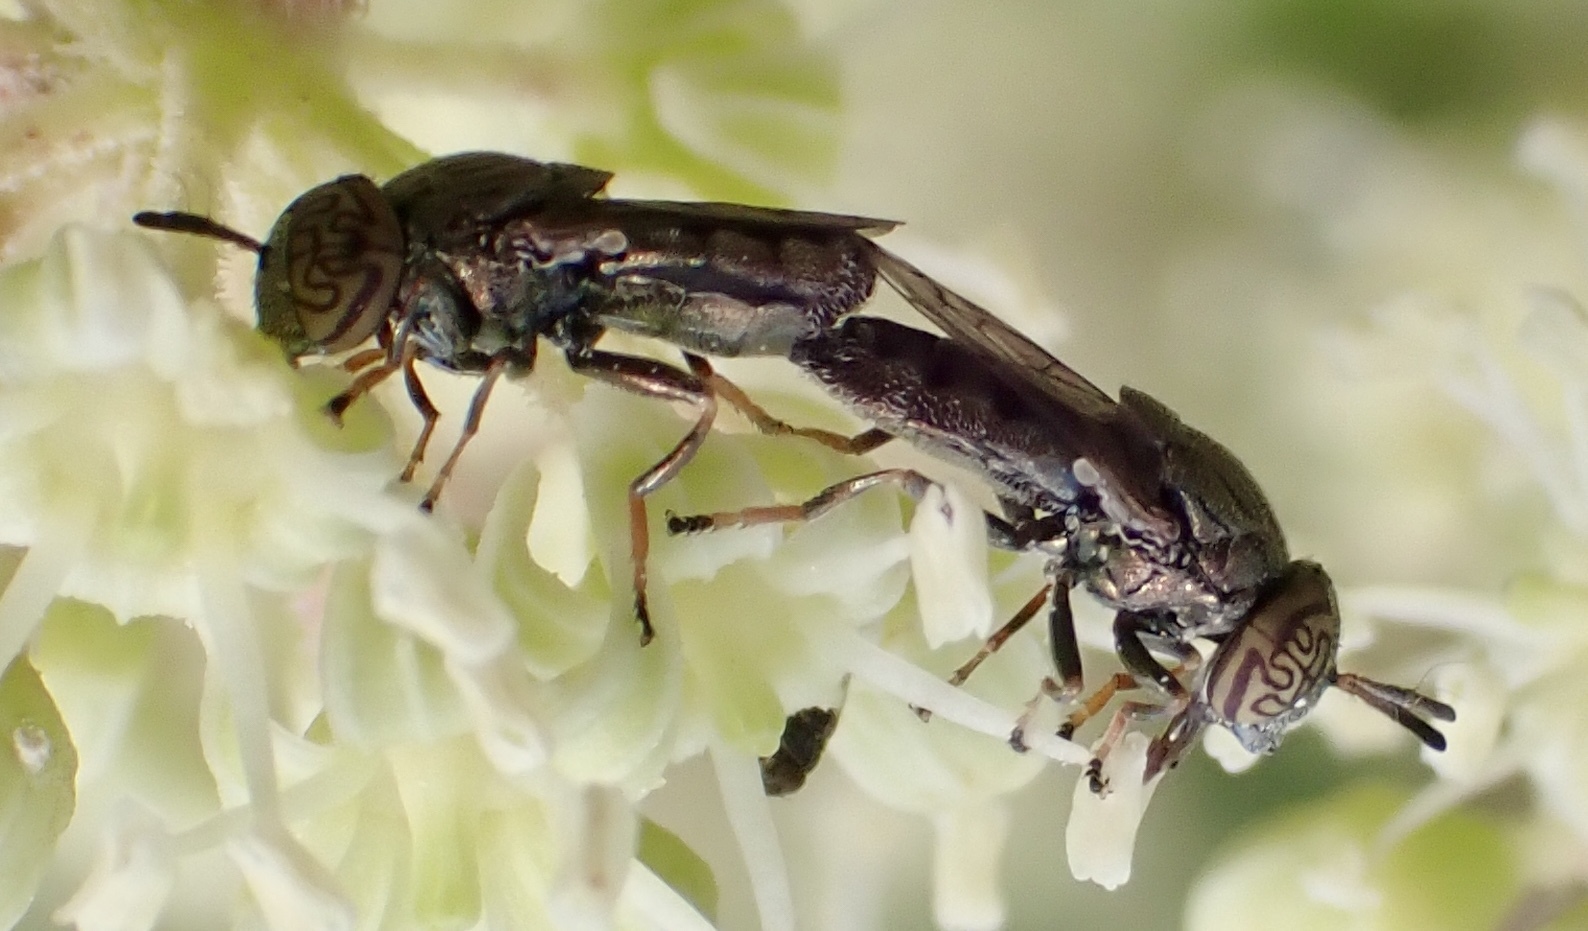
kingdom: Animalia
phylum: Arthropoda
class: Insecta
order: Diptera
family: Syrphidae
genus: Orthonevra
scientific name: Orthonevra nitida
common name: Wavy mucksucker
